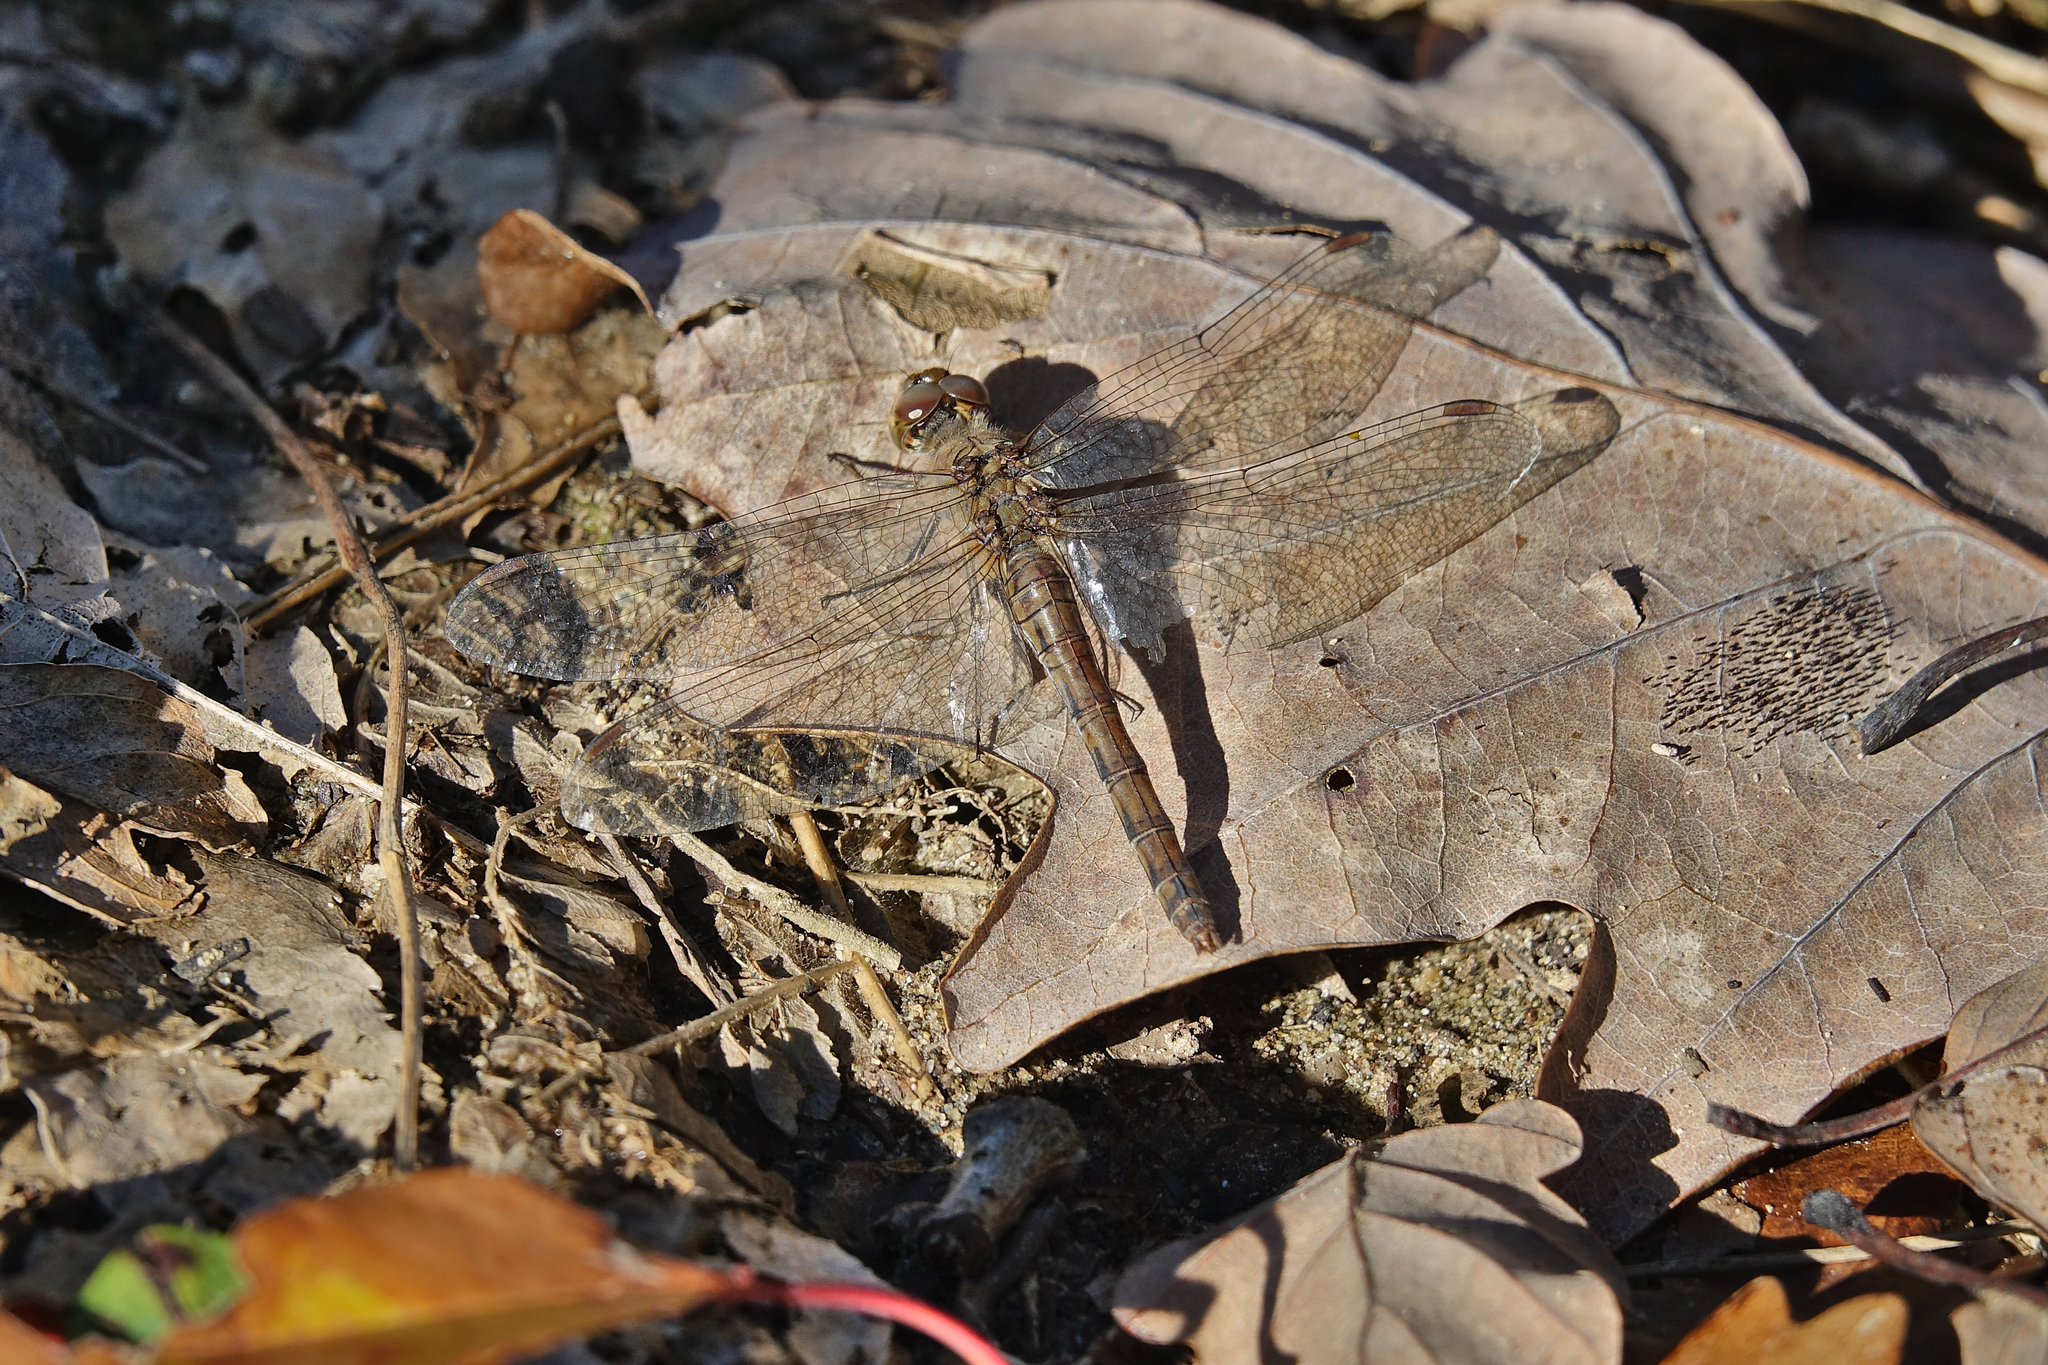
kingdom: Animalia
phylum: Arthropoda
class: Insecta
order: Odonata
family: Libellulidae
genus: Sympetrum
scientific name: Sympetrum striolatum
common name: Common darter
